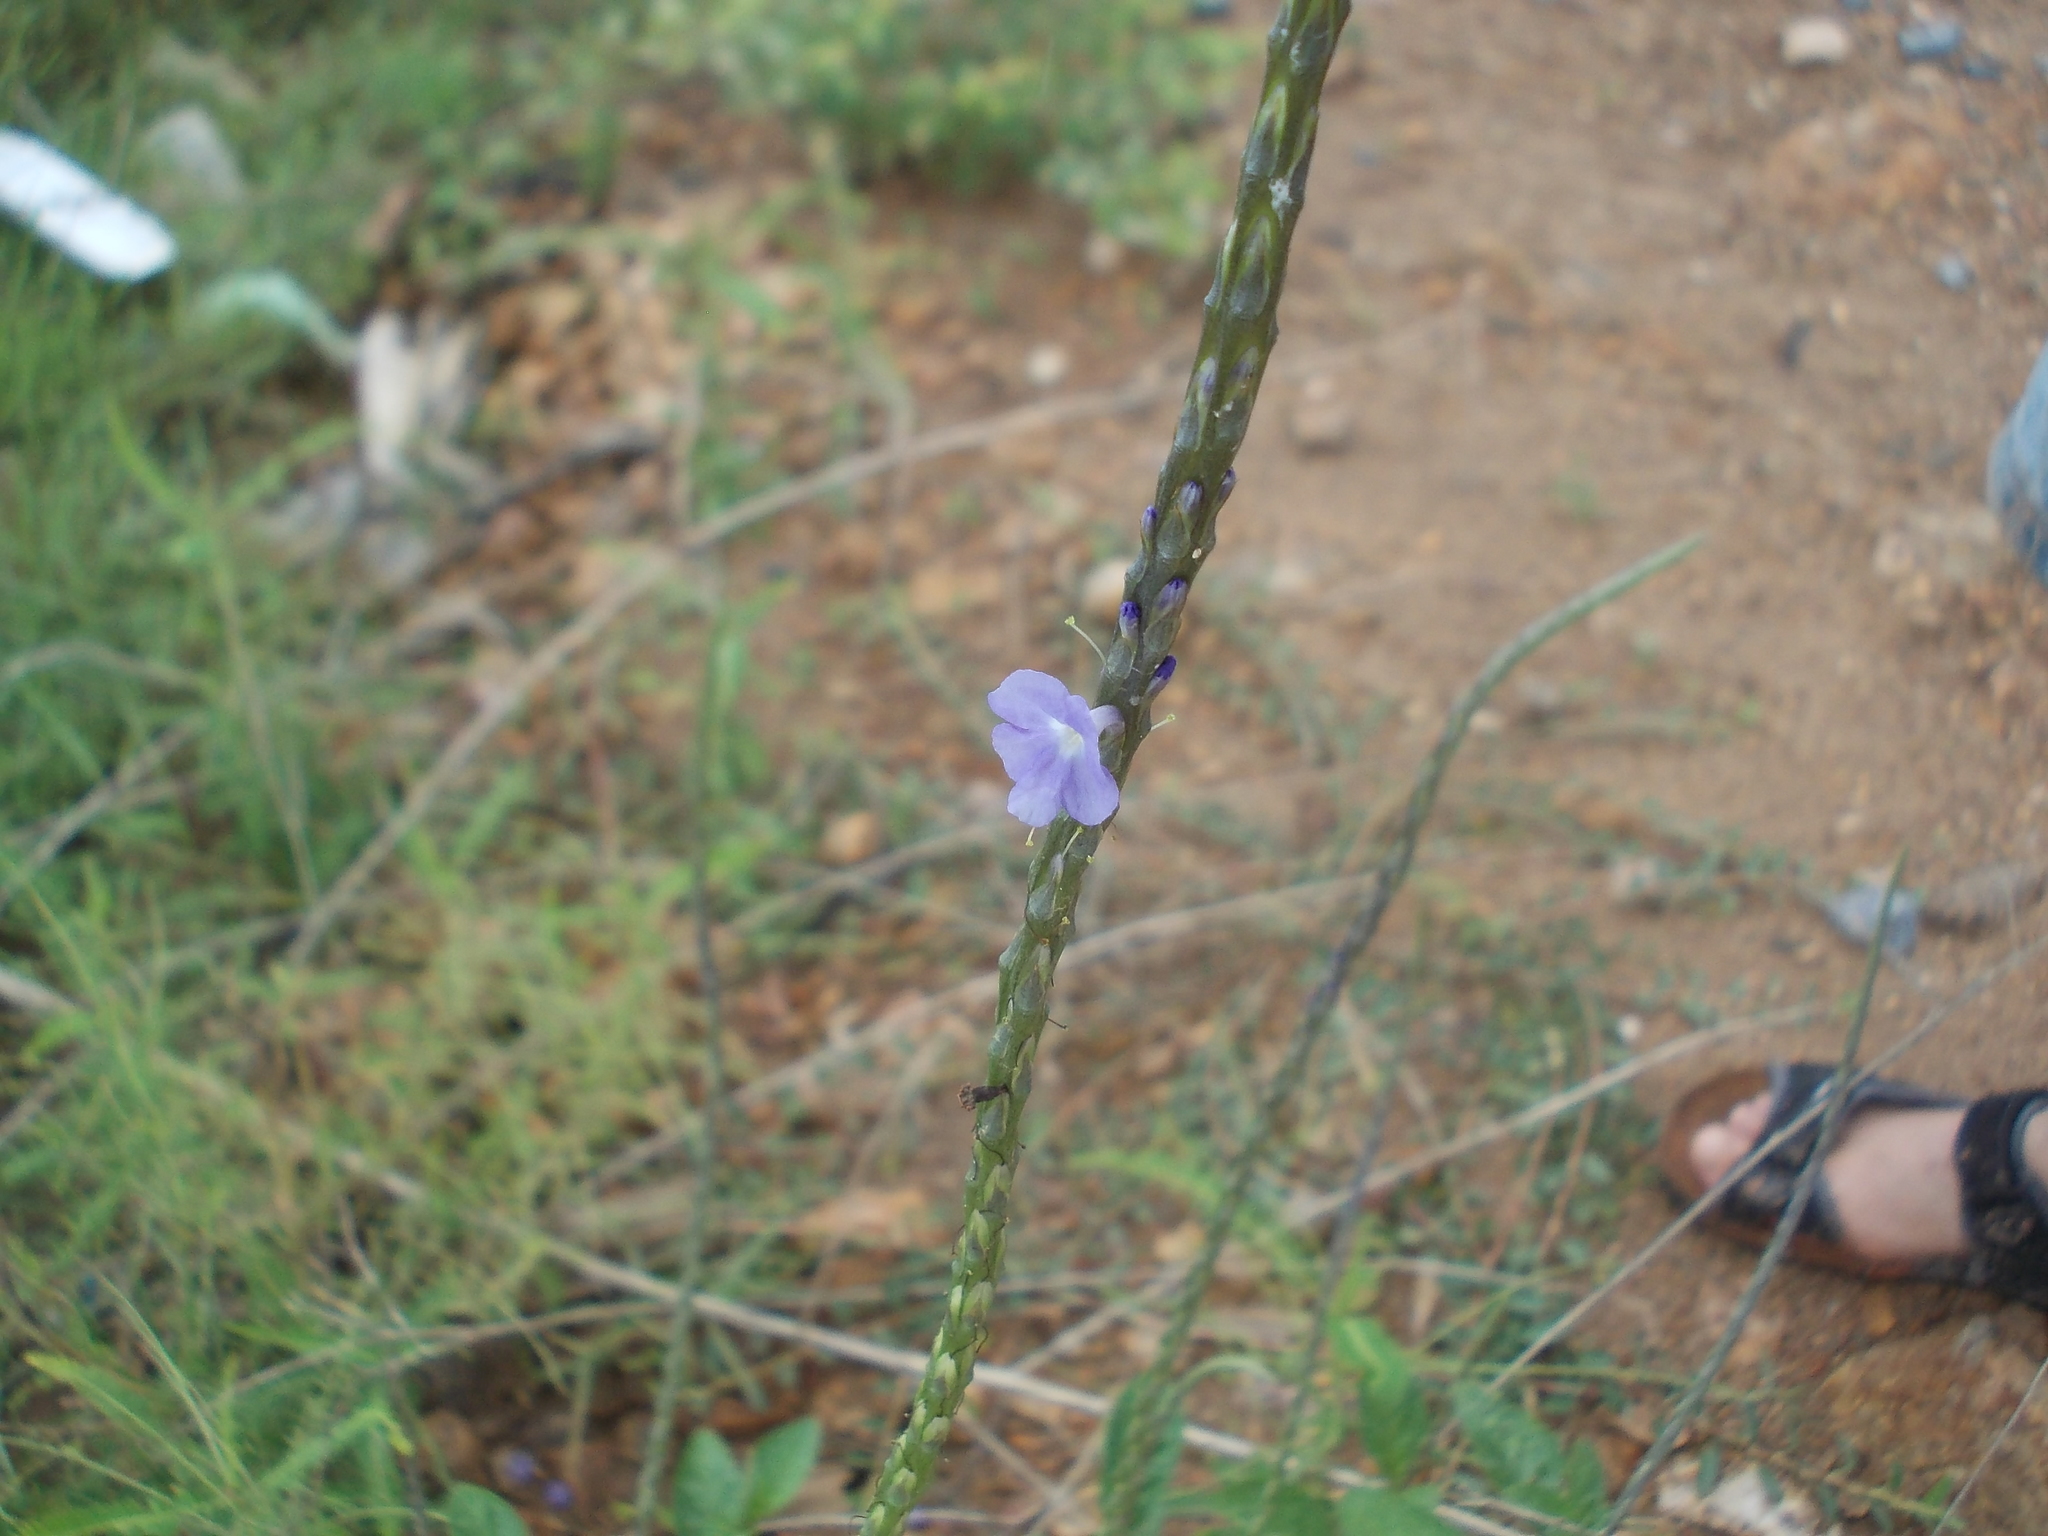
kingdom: Plantae
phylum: Tracheophyta
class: Magnoliopsida
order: Lamiales
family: Verbenaceae
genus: Stachytarpheta
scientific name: Stachytarpheta jamaicensis
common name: Light-blue snakeweed
